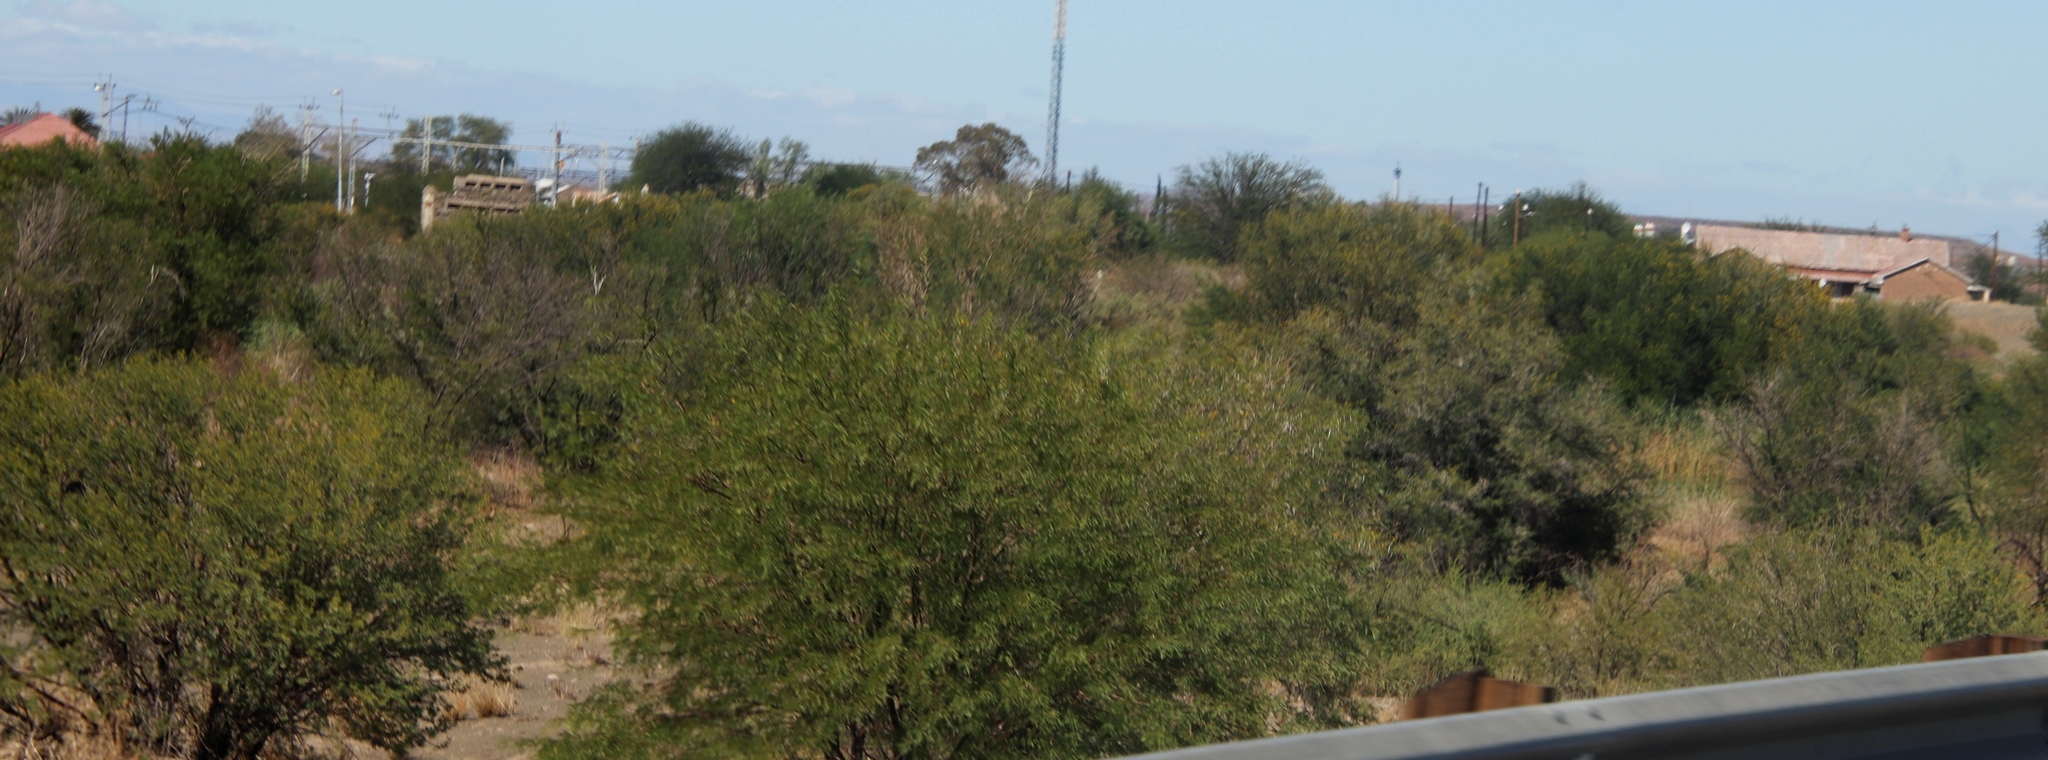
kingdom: Plantae
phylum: Tracheophyta
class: Magnoliopsida
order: Fabales
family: Fabaceae
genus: Vachellia
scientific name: Vachellia karroo
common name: Sweet thorn
